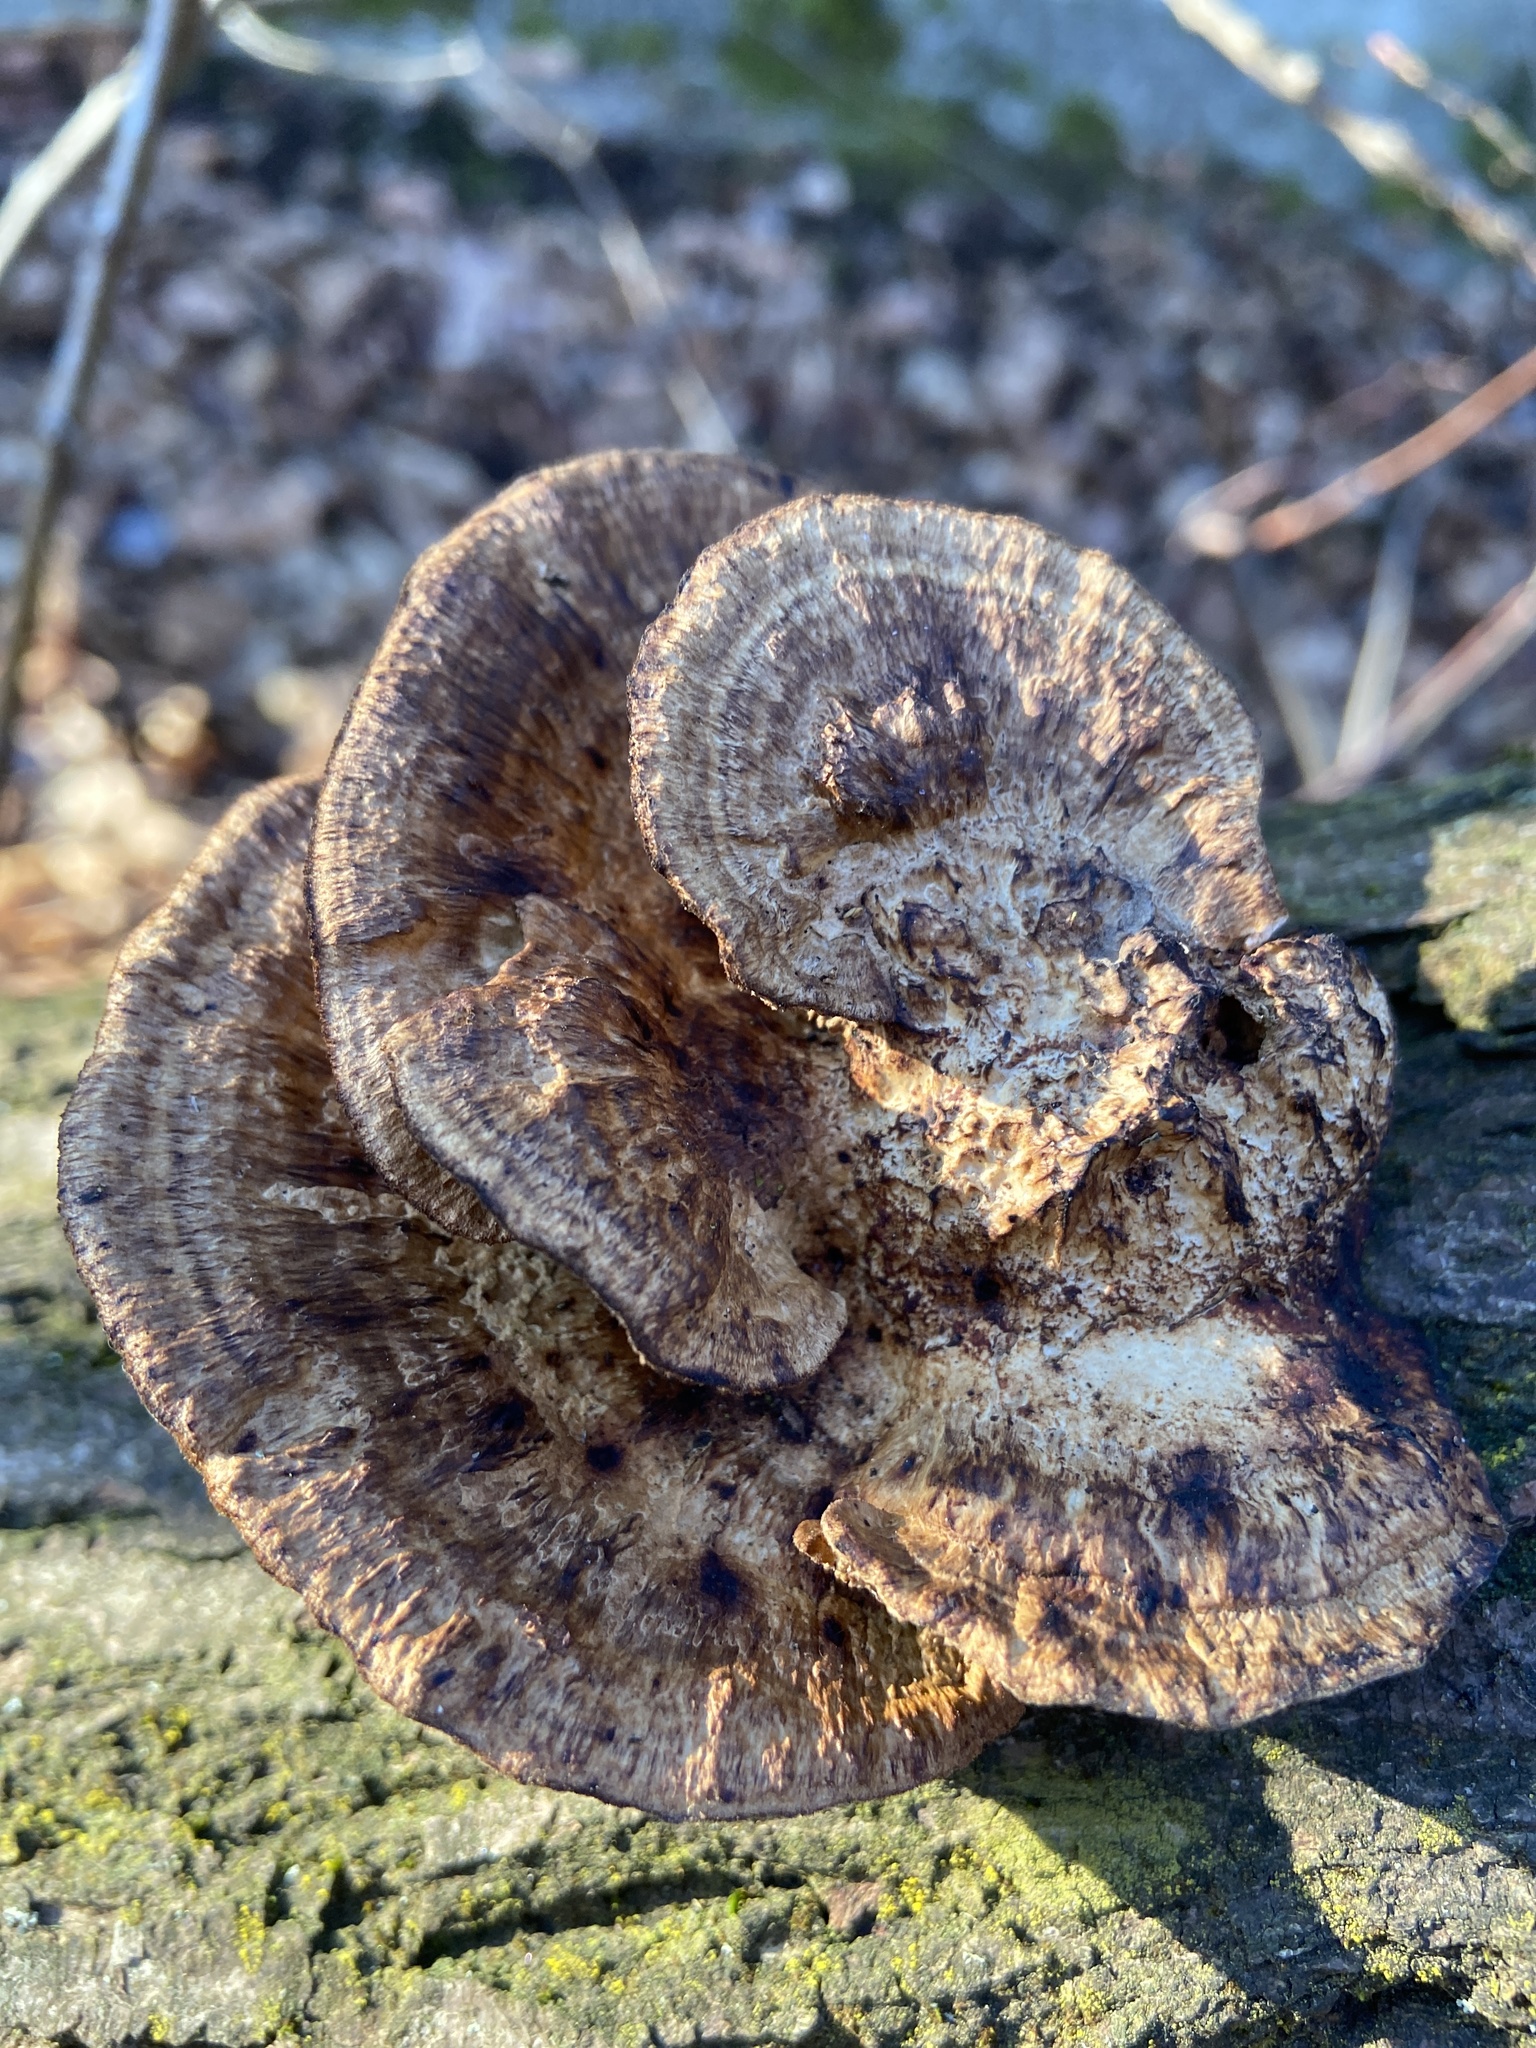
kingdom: Fungi
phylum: Basidiomycota
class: Agaricomycetes
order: Polyporales
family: Polyporaceae
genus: Daedaleopsis
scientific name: Daedaleopsis confragosa
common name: Blushing bracket
